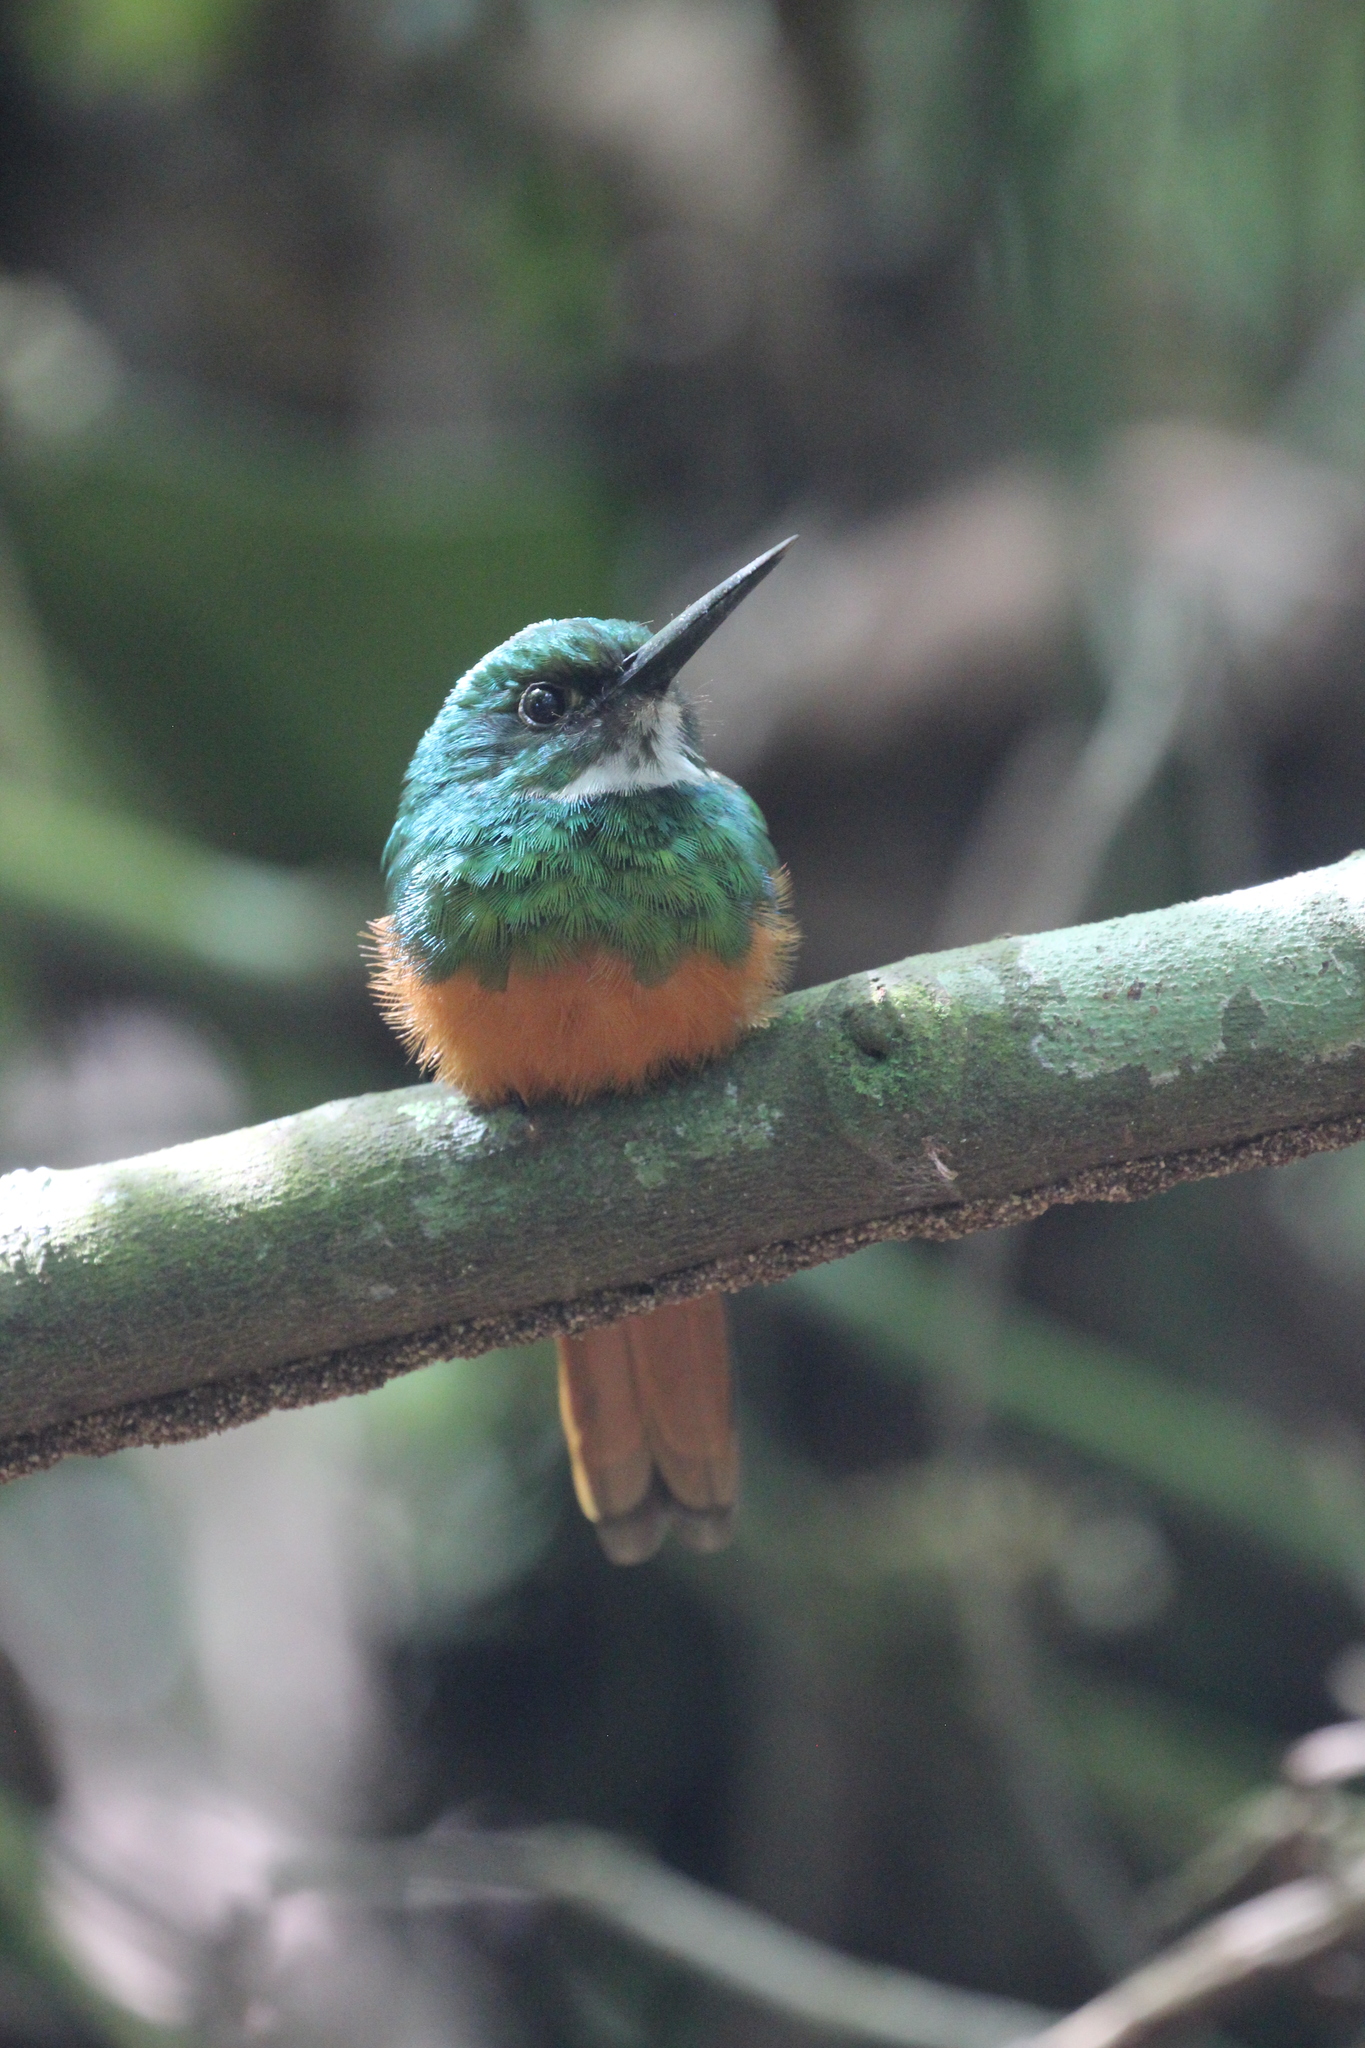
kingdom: Animalia
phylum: Chordata
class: Aves
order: Piciformes
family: Galbulidae
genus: Galbula
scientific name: Galbula ruficauda
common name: Rufous-tailed jacamar
